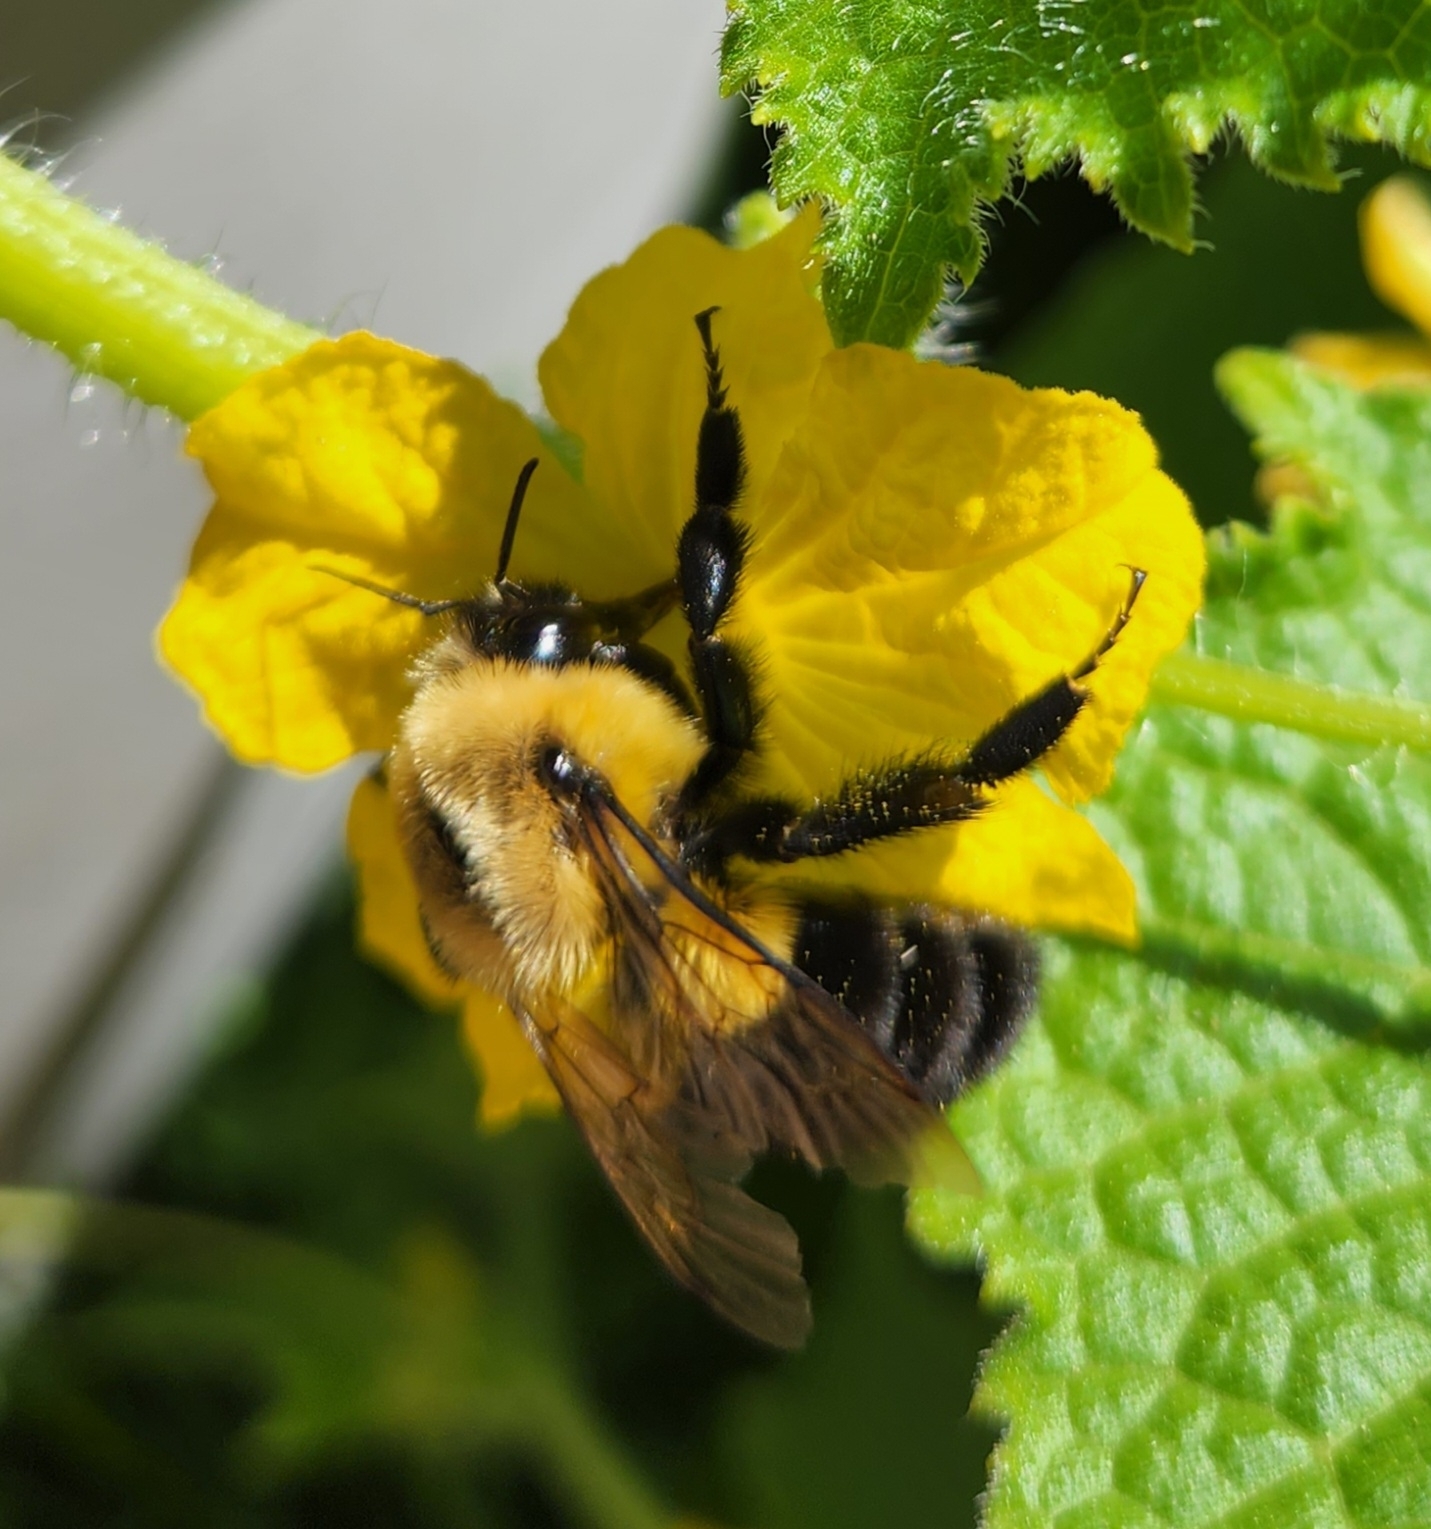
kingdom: Animalia
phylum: Arthropoda
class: Insecta
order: Hymenoptera
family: Apidae
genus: Bombus
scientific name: Bombus impatiens
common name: Common eastern bumble bee
